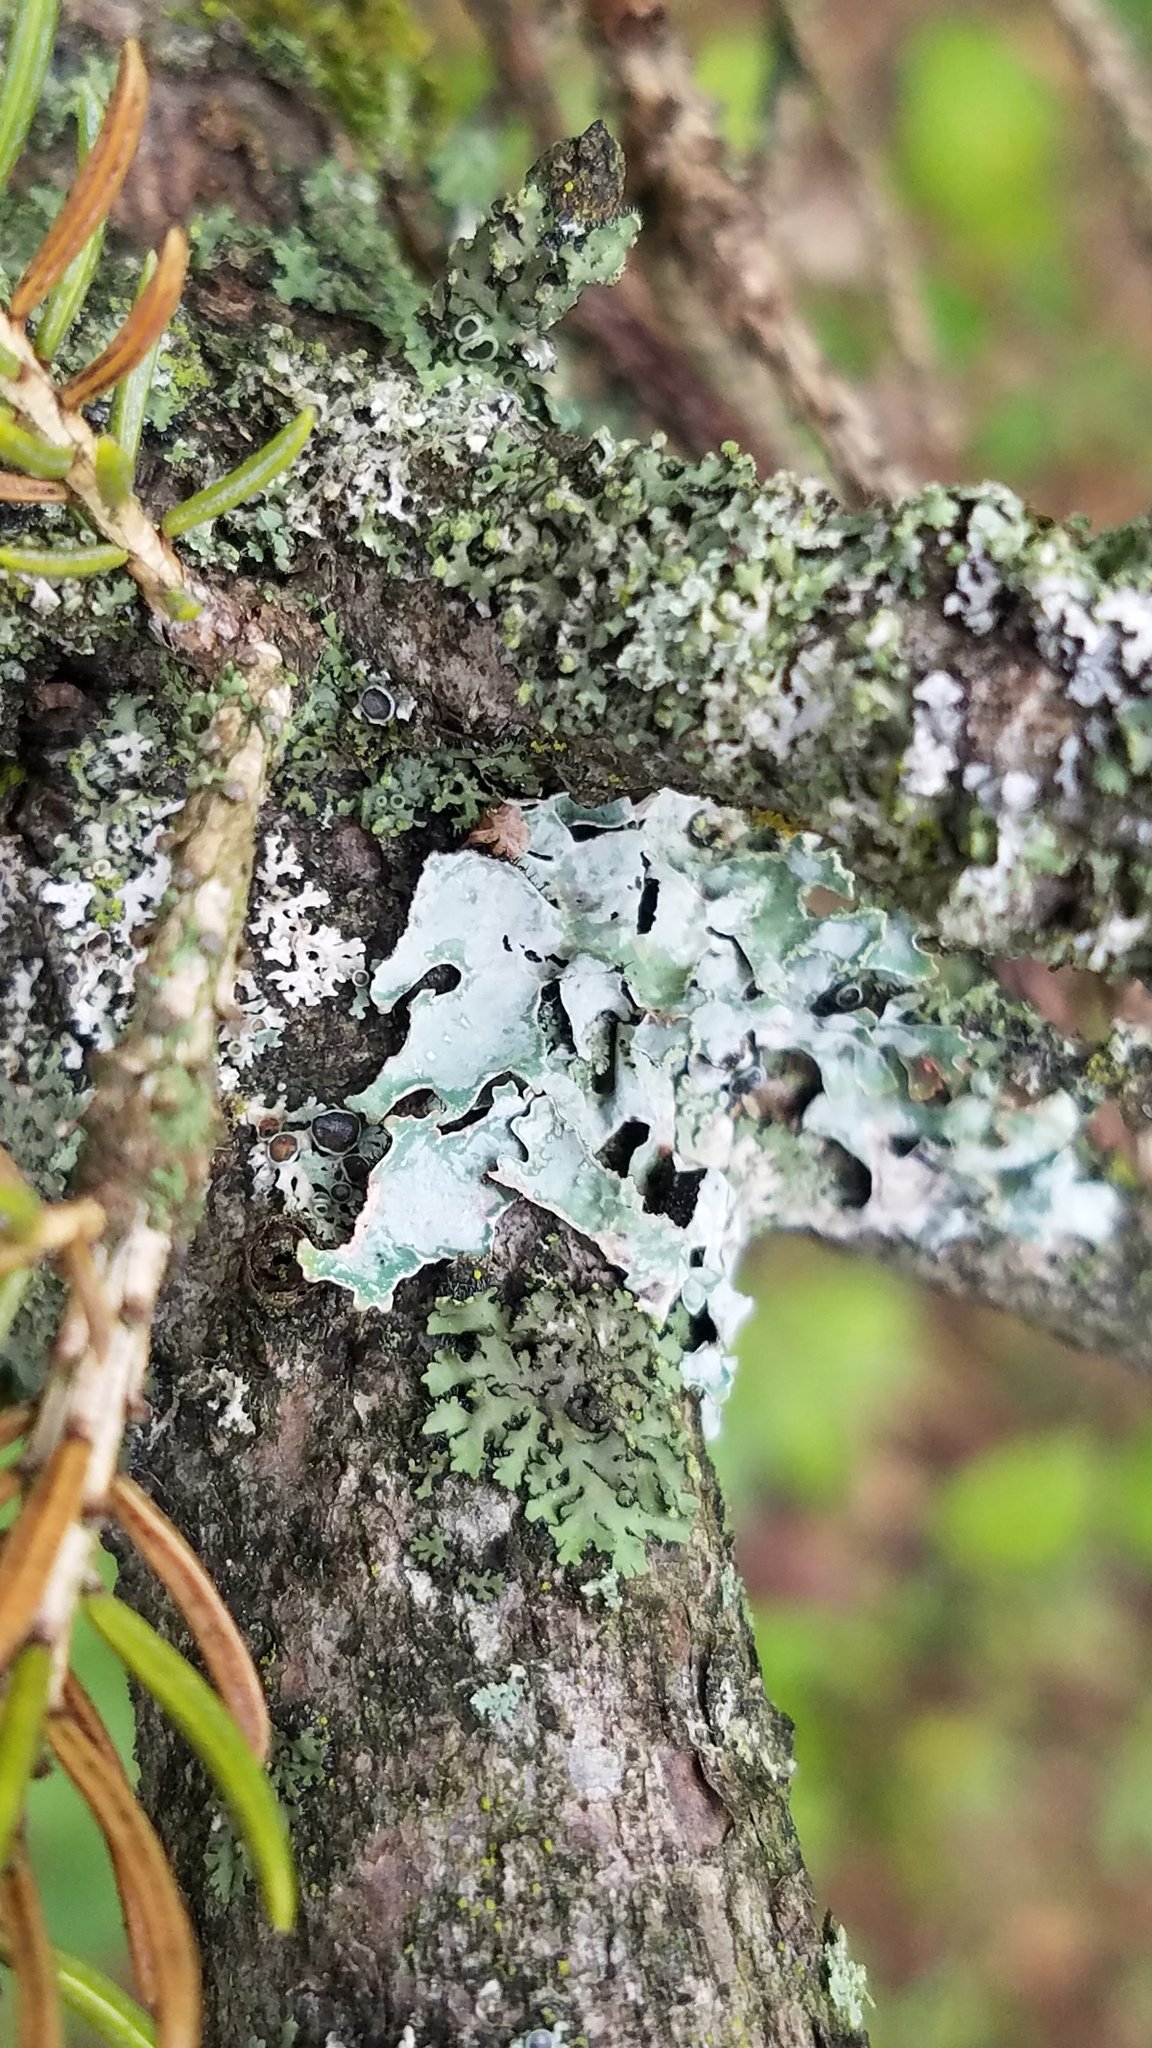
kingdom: Fungi
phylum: Ascomycota
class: Lecanoromycetes
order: Lecanorales
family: Parmeliaceae
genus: Parmelia
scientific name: Parmelia sulcata
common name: Netted shield lichen
